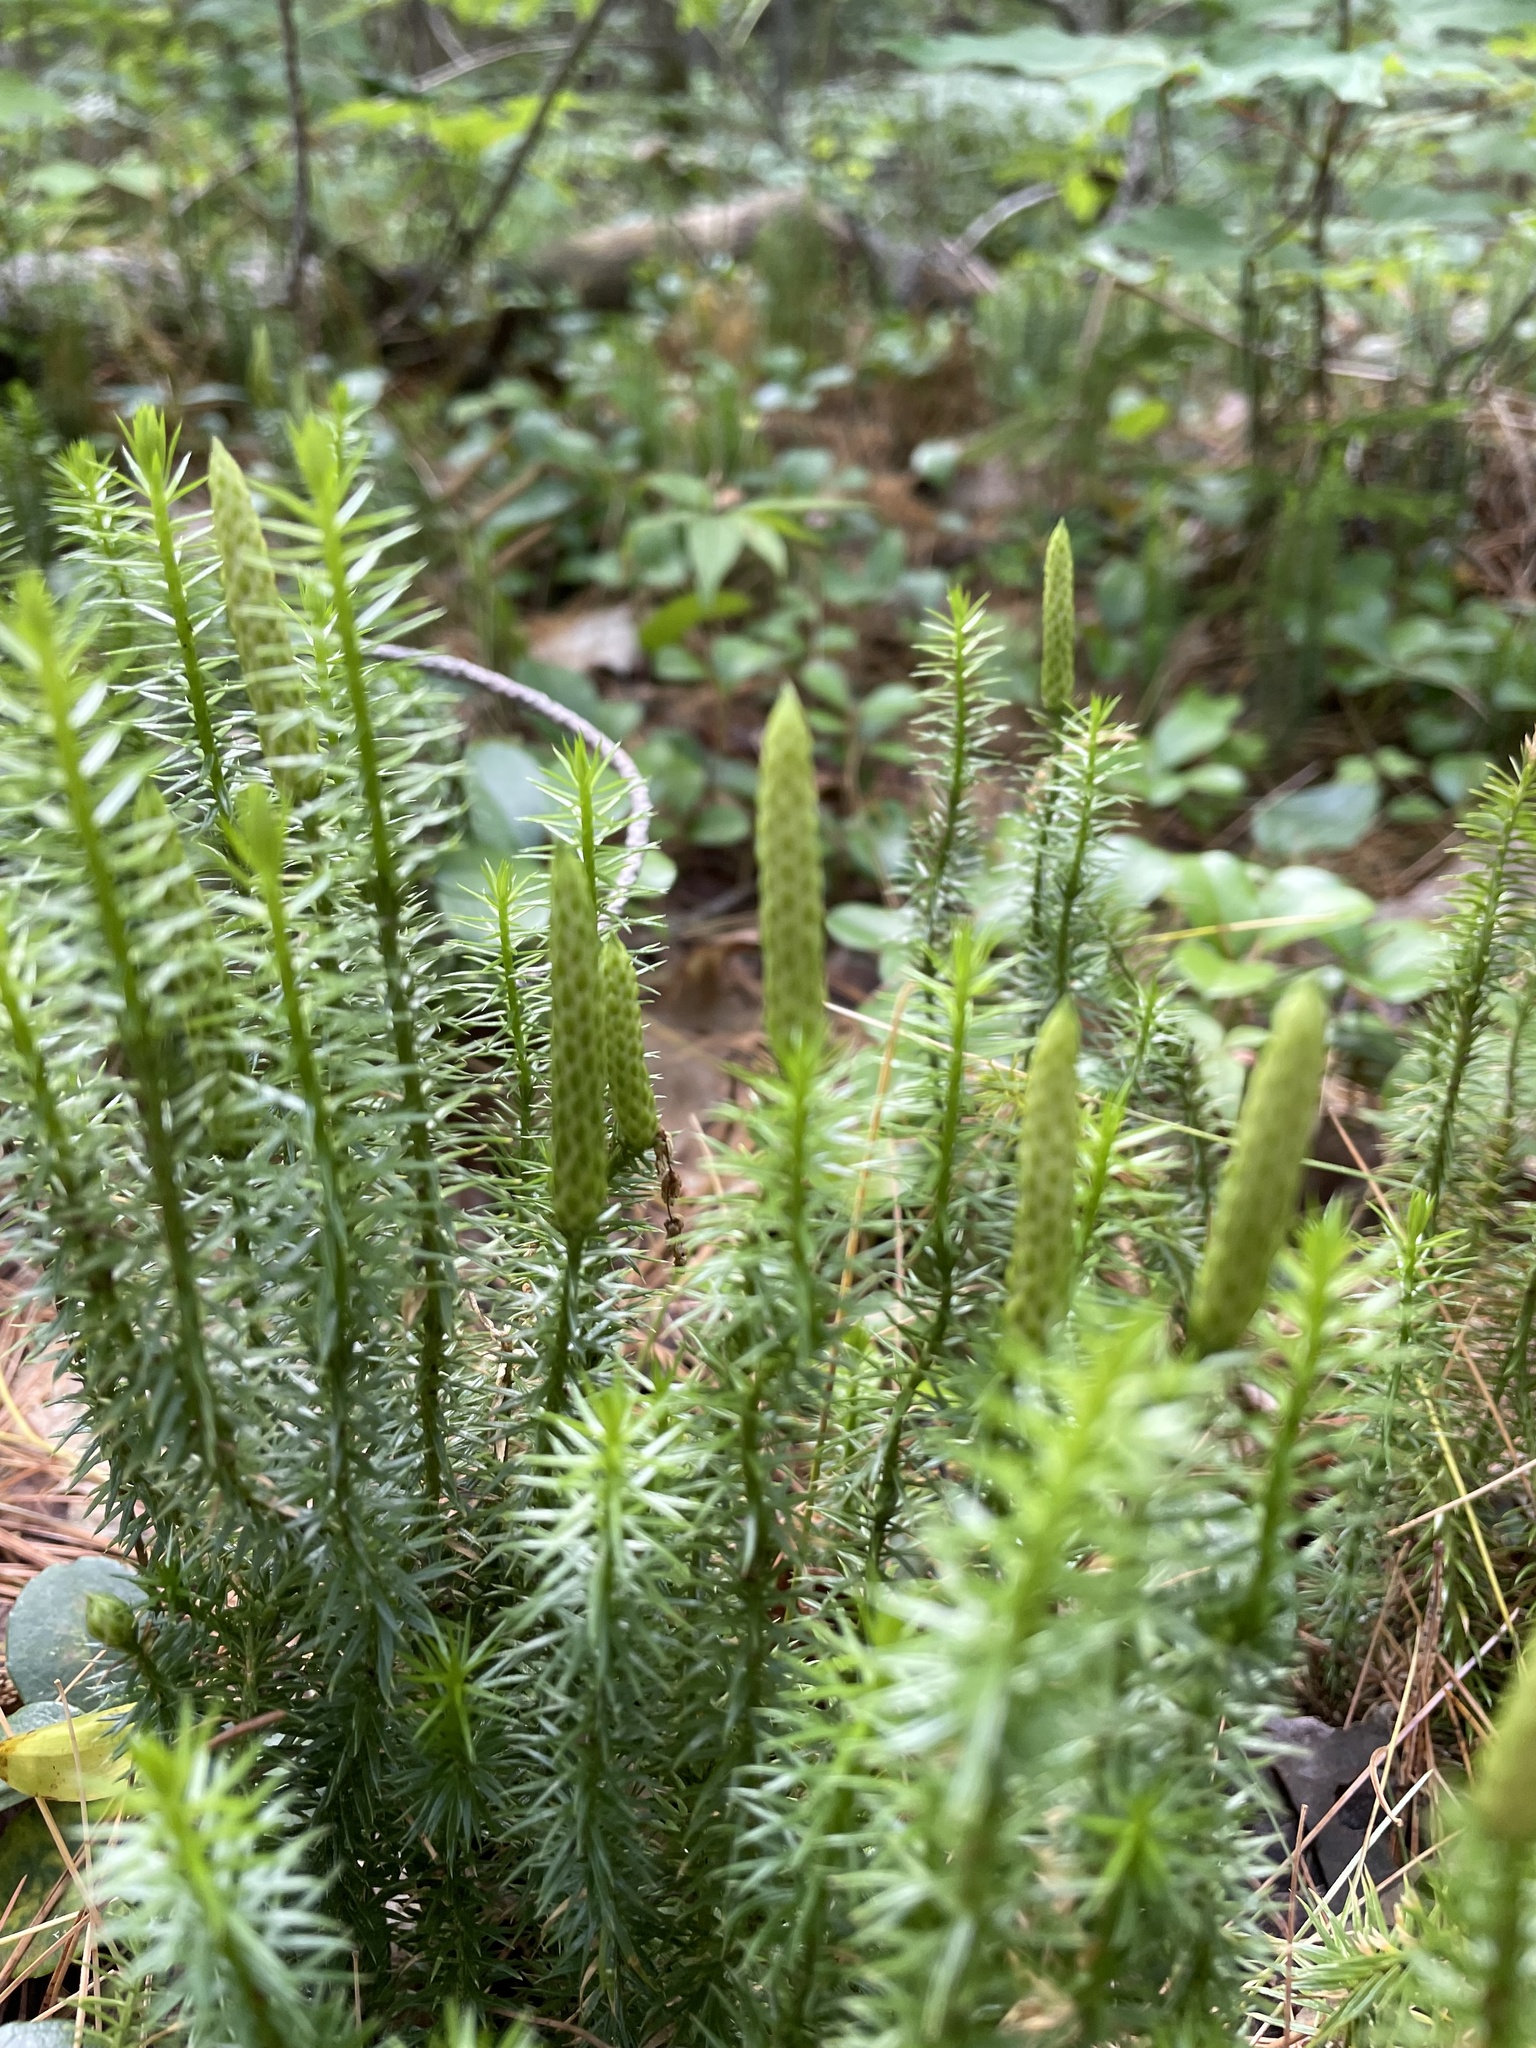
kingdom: Plantae
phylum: Tracheophyta
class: Lycopodiopsida
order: Lycopodiales
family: Lycopodiaceae
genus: Spinulum
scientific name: Spinulum annotinum
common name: Interrupted club-moss
